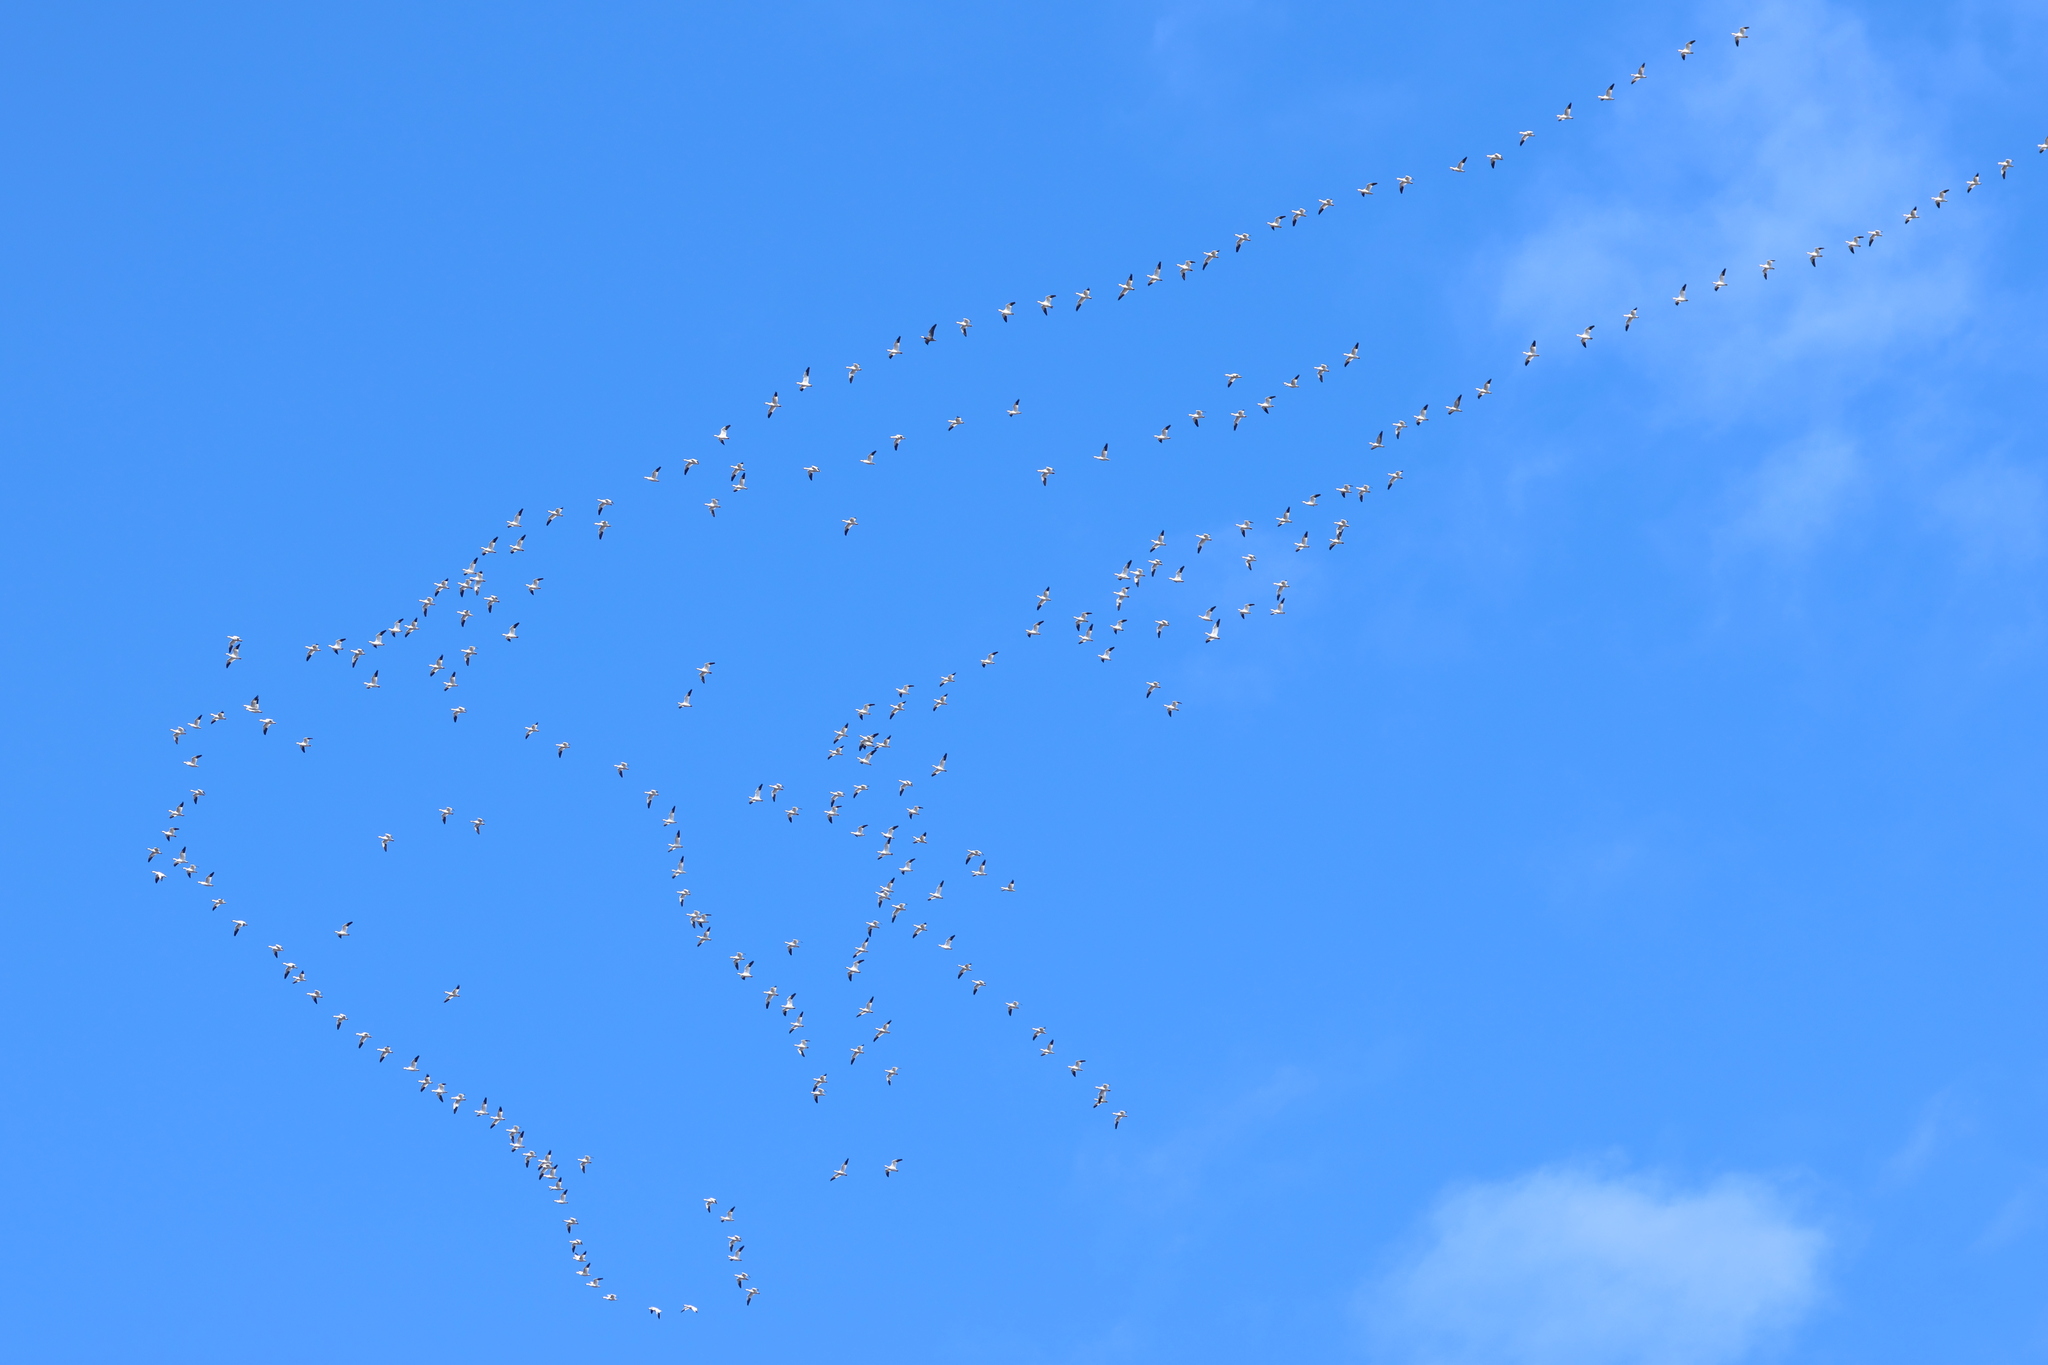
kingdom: Animalia
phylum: Chordata
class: Aves
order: Anseriformes
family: Anatidae
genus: Anser
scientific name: Anser caerulescens
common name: Snow goose
